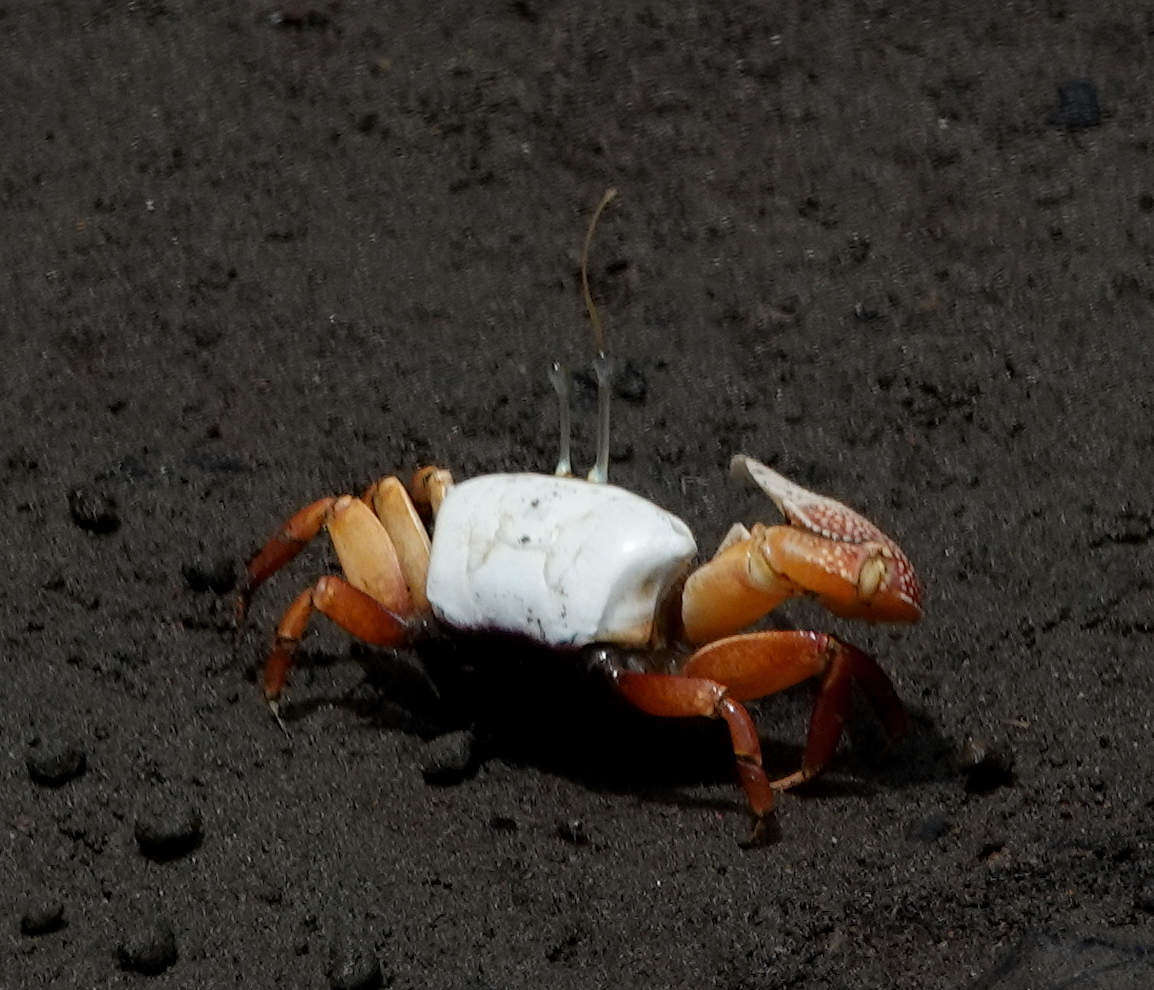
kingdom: Animalia
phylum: Arthropoda
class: Malacostraca
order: Decapoda
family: Ocypodidae
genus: Uca
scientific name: Uca stylifera
